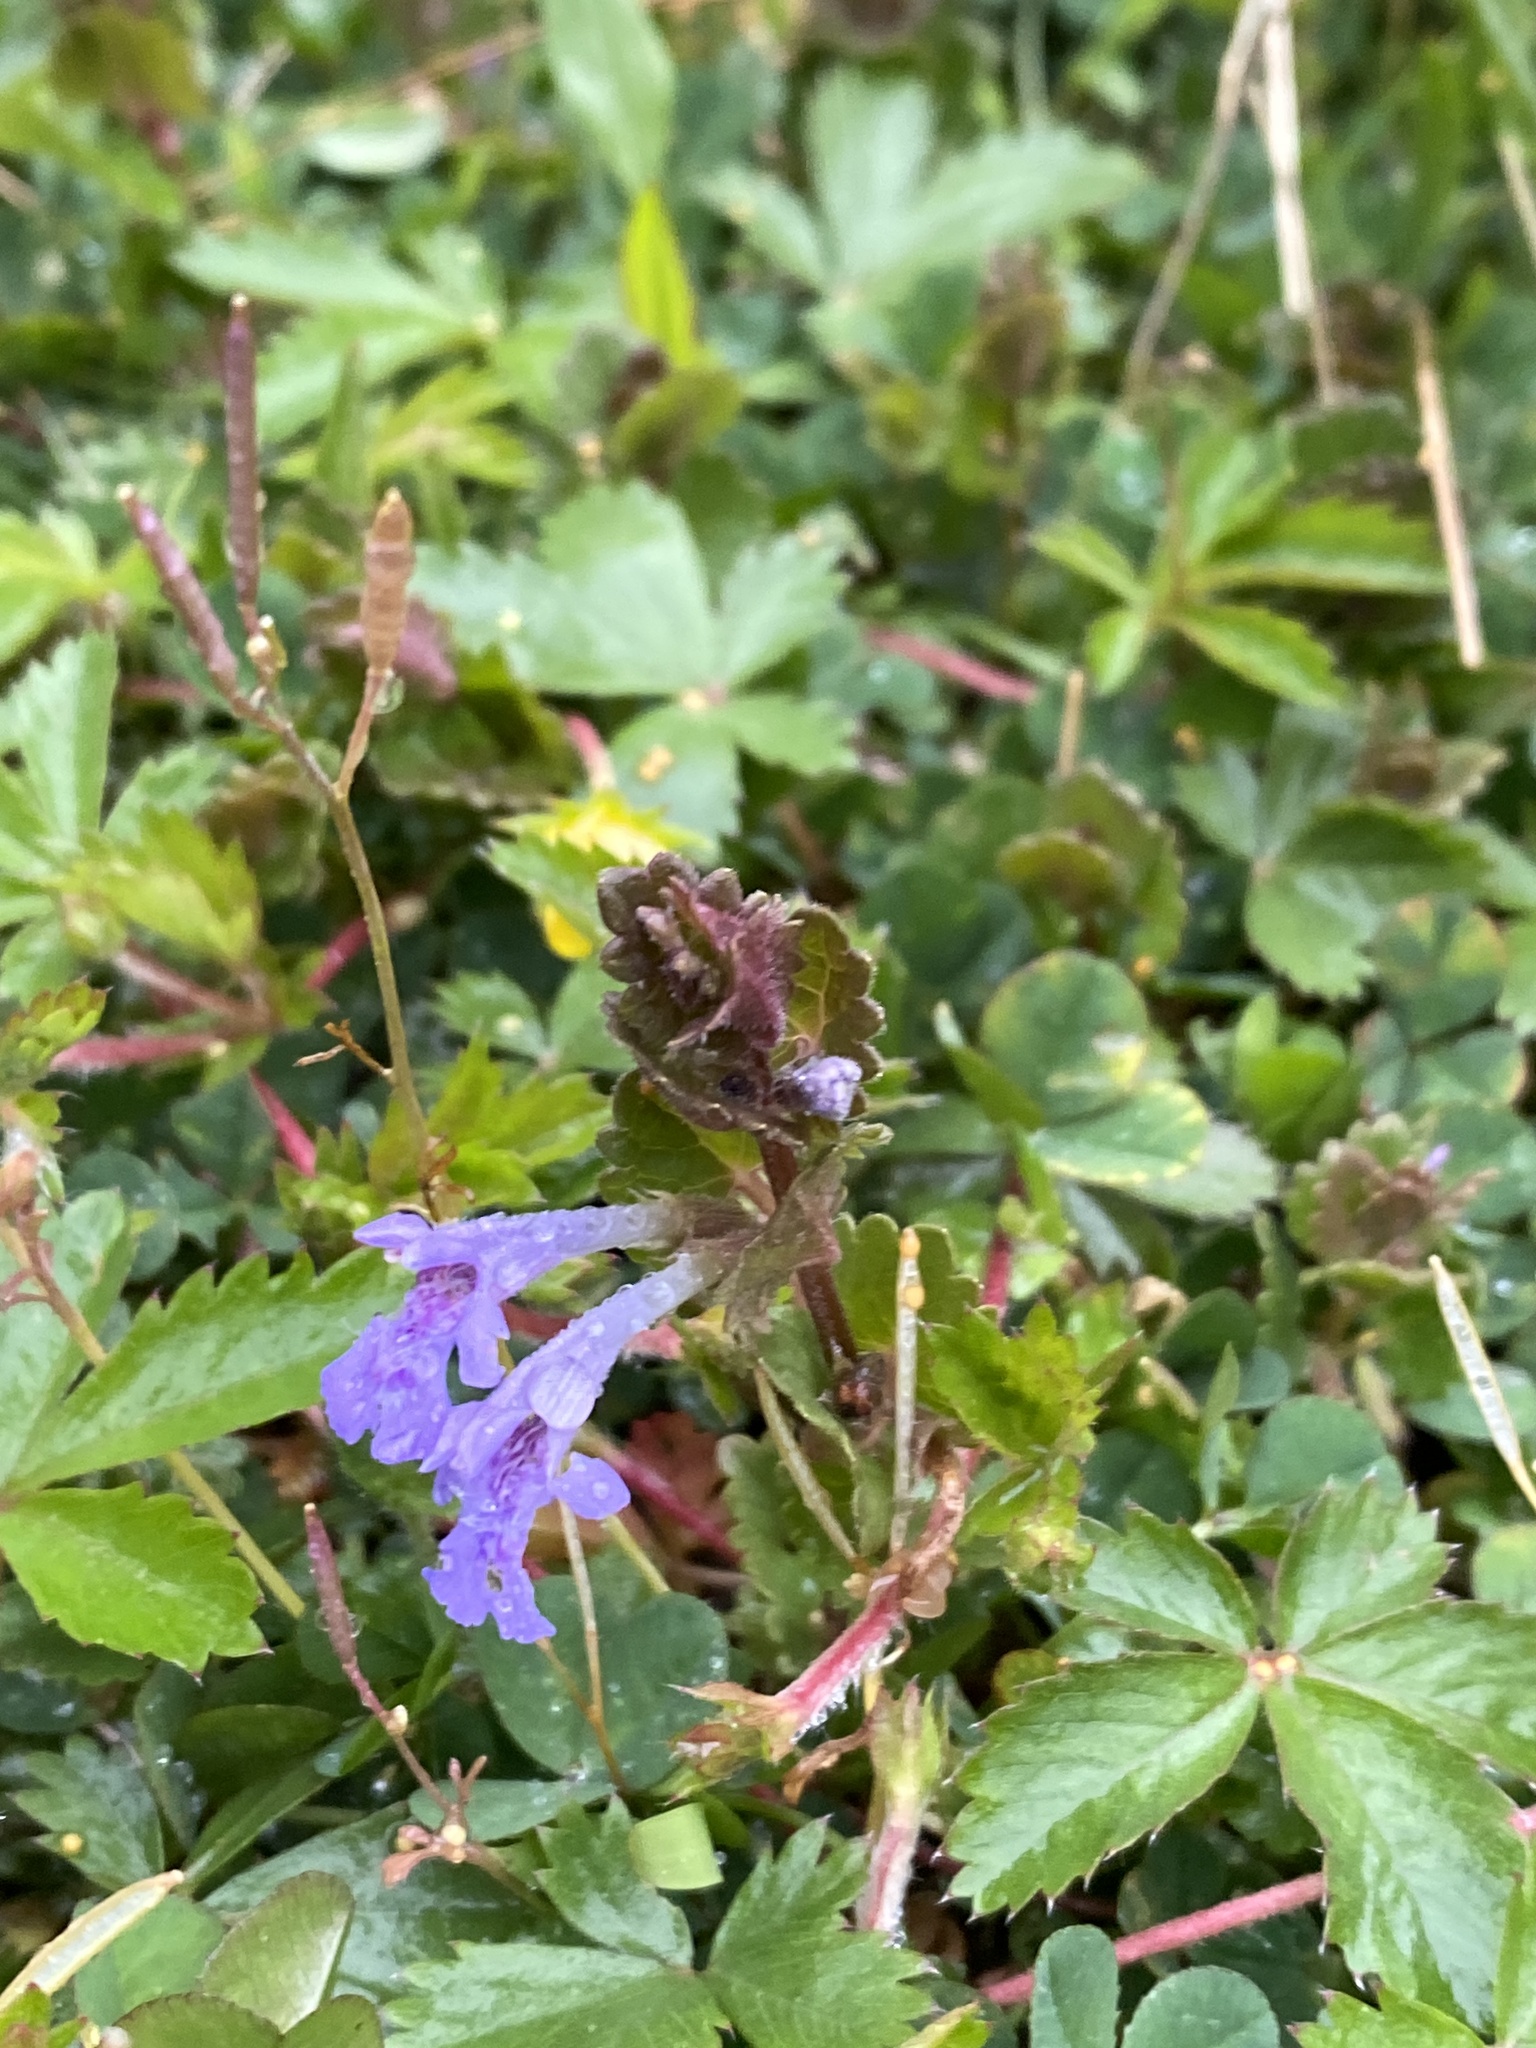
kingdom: Plantae
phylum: Tracheophyta
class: Magnoliopsida
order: Lamiales
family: Lamiaceae
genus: Glechoma
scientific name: Glechoma hederacea
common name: Ground ivy
